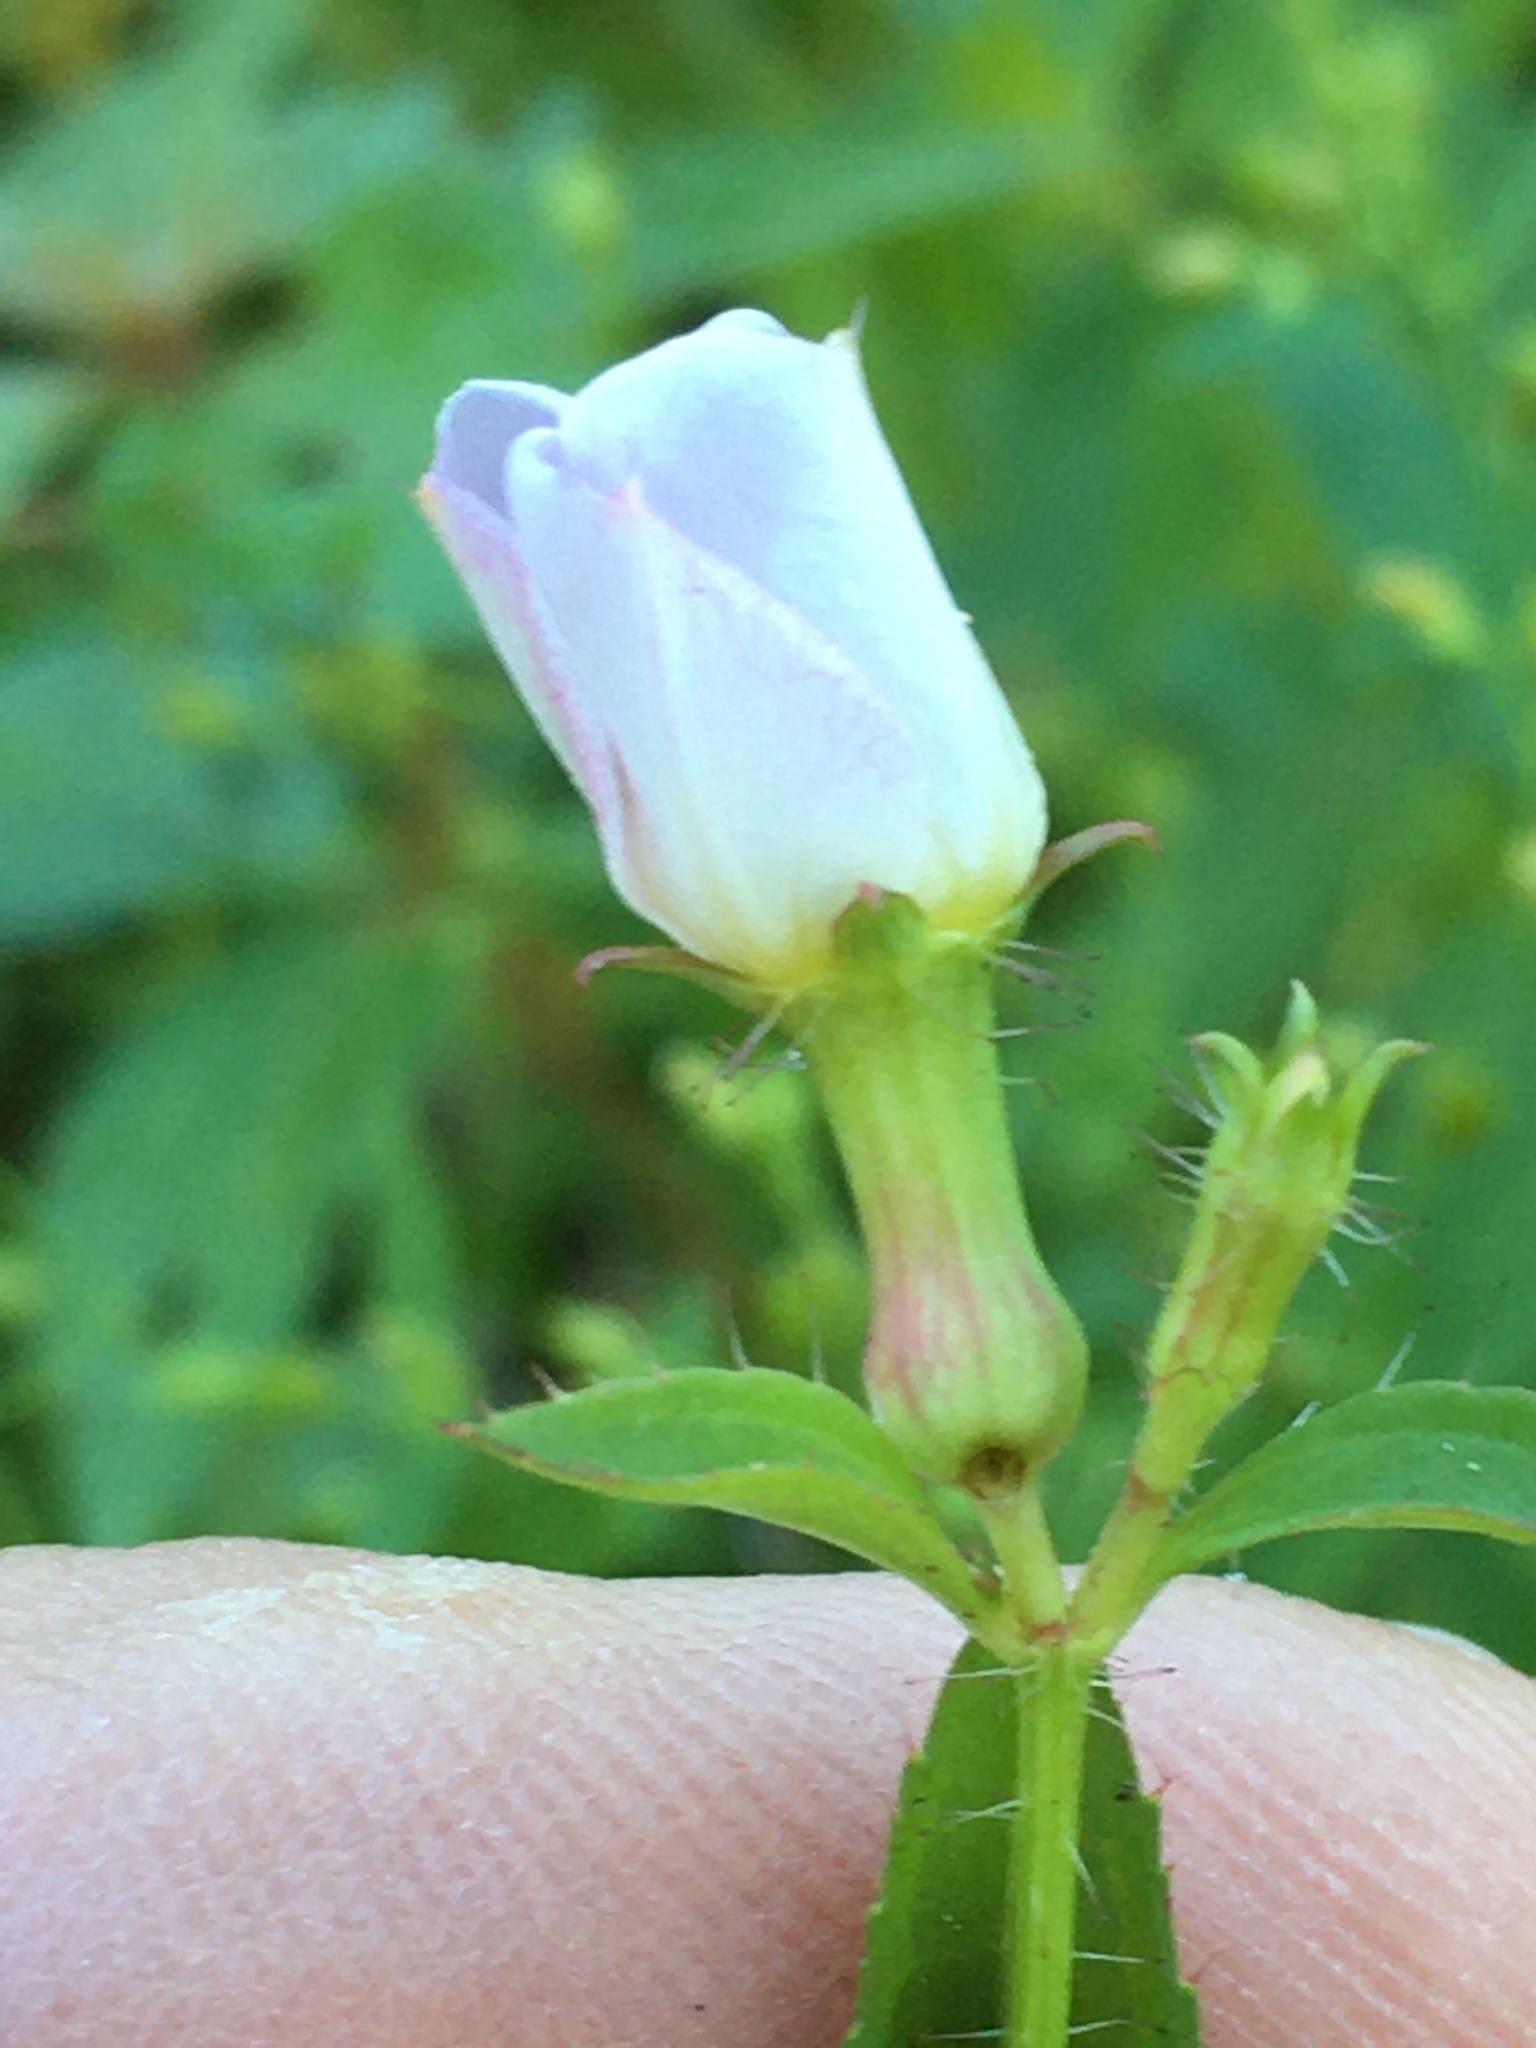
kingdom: Plantae
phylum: Tracheophyta
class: Magnoliopsida
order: Myrtales
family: Melastomataceae
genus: Rhexia
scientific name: Rhexia mariana
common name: Dull meadow-pitcher
